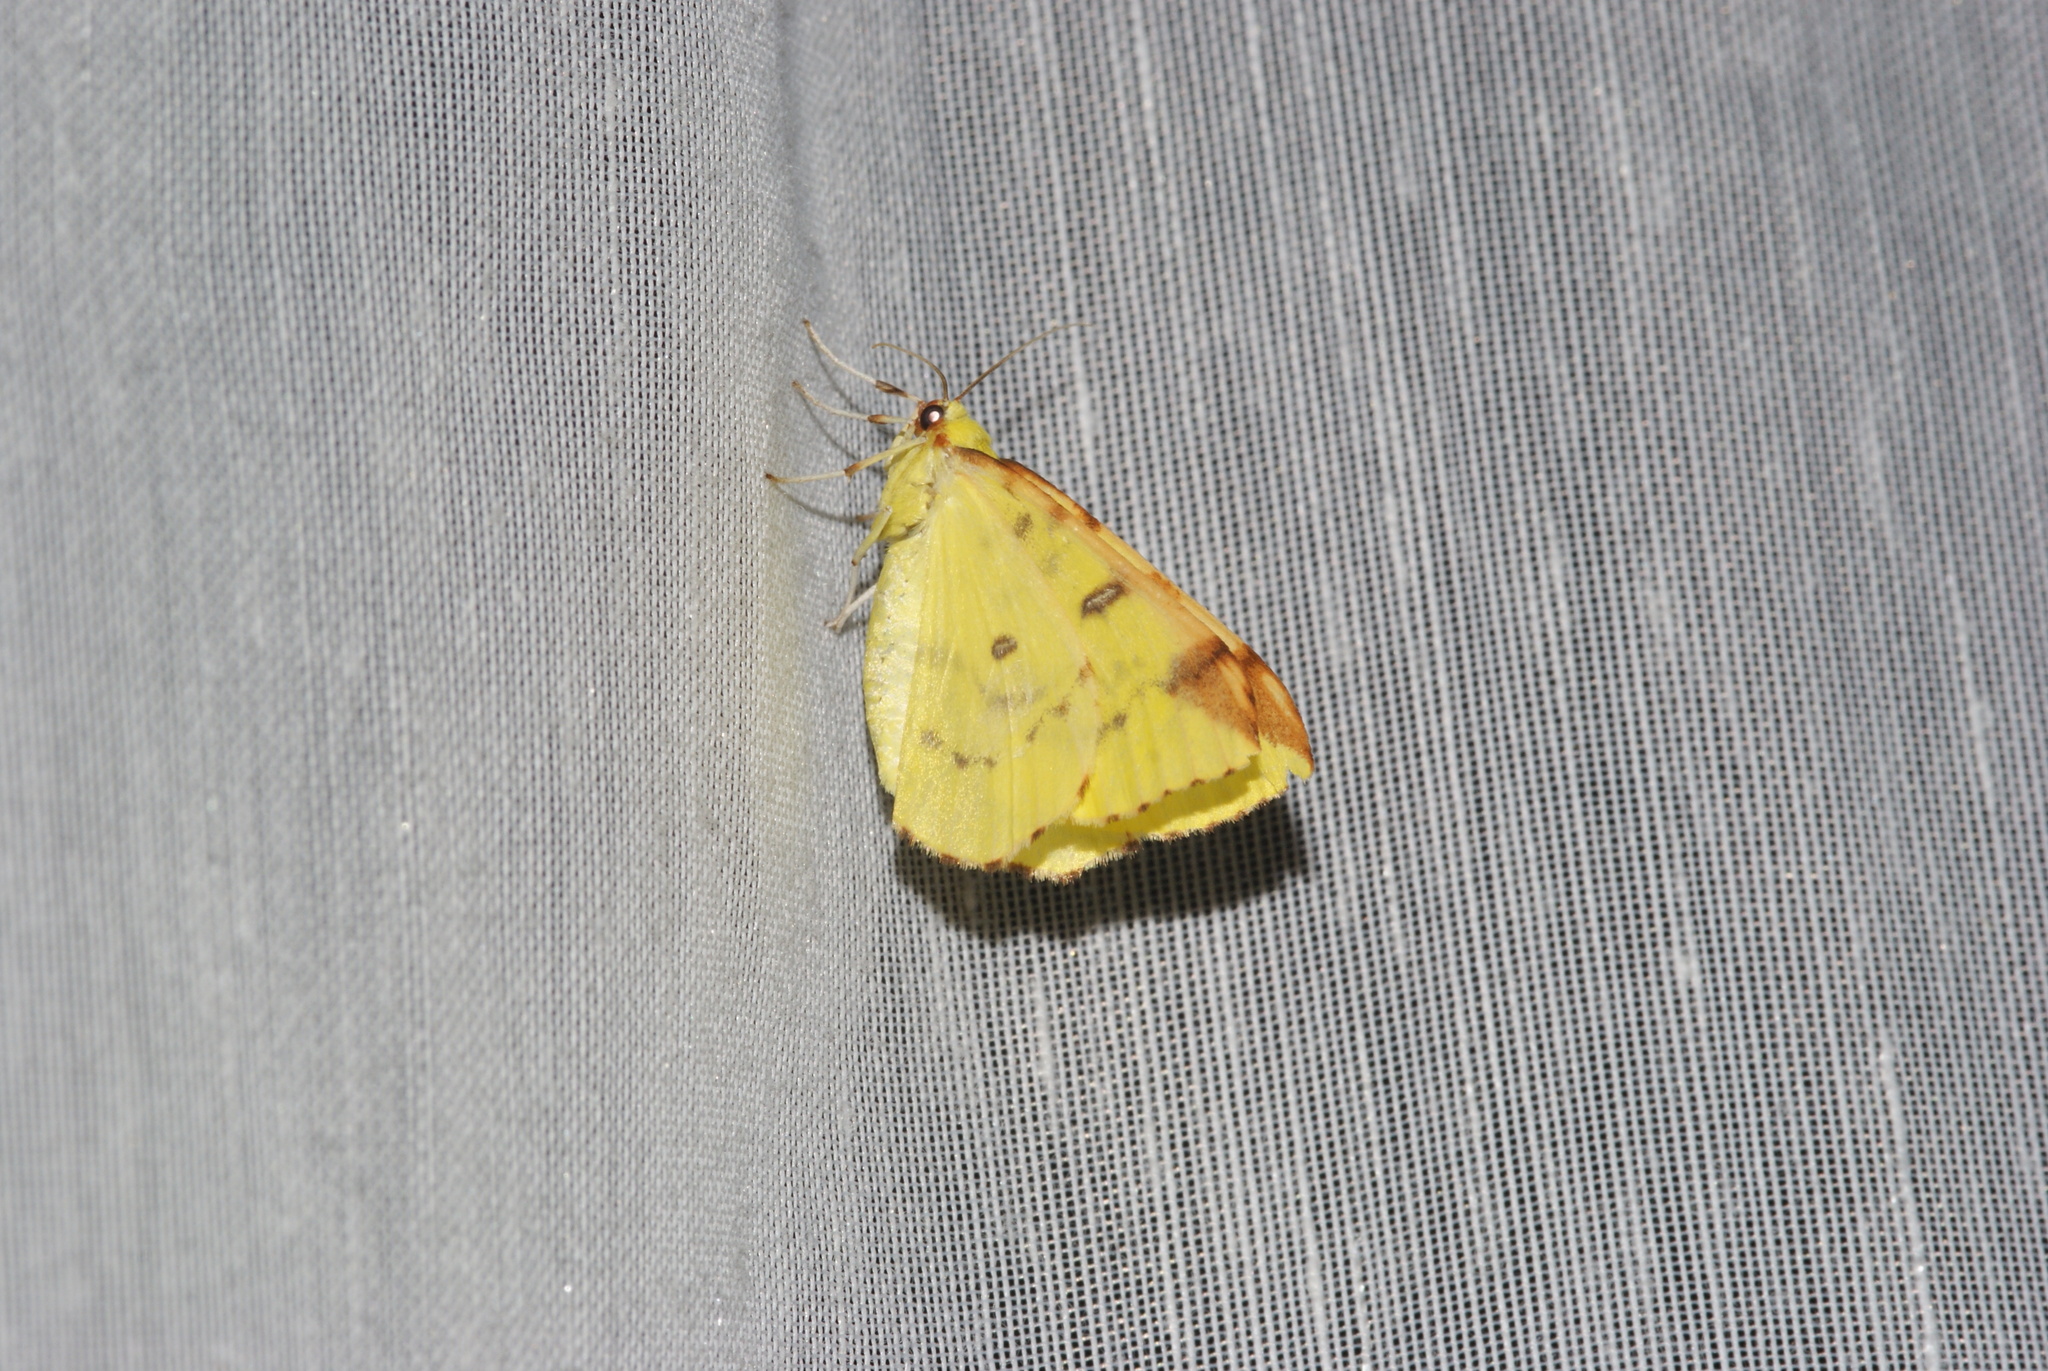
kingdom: Animalia
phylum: Arthropoda
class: Insecta
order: Lepidoptera
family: Geometridae
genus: Opisthograptis
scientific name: Opisthograptis luteolata
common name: Brimstone moth
